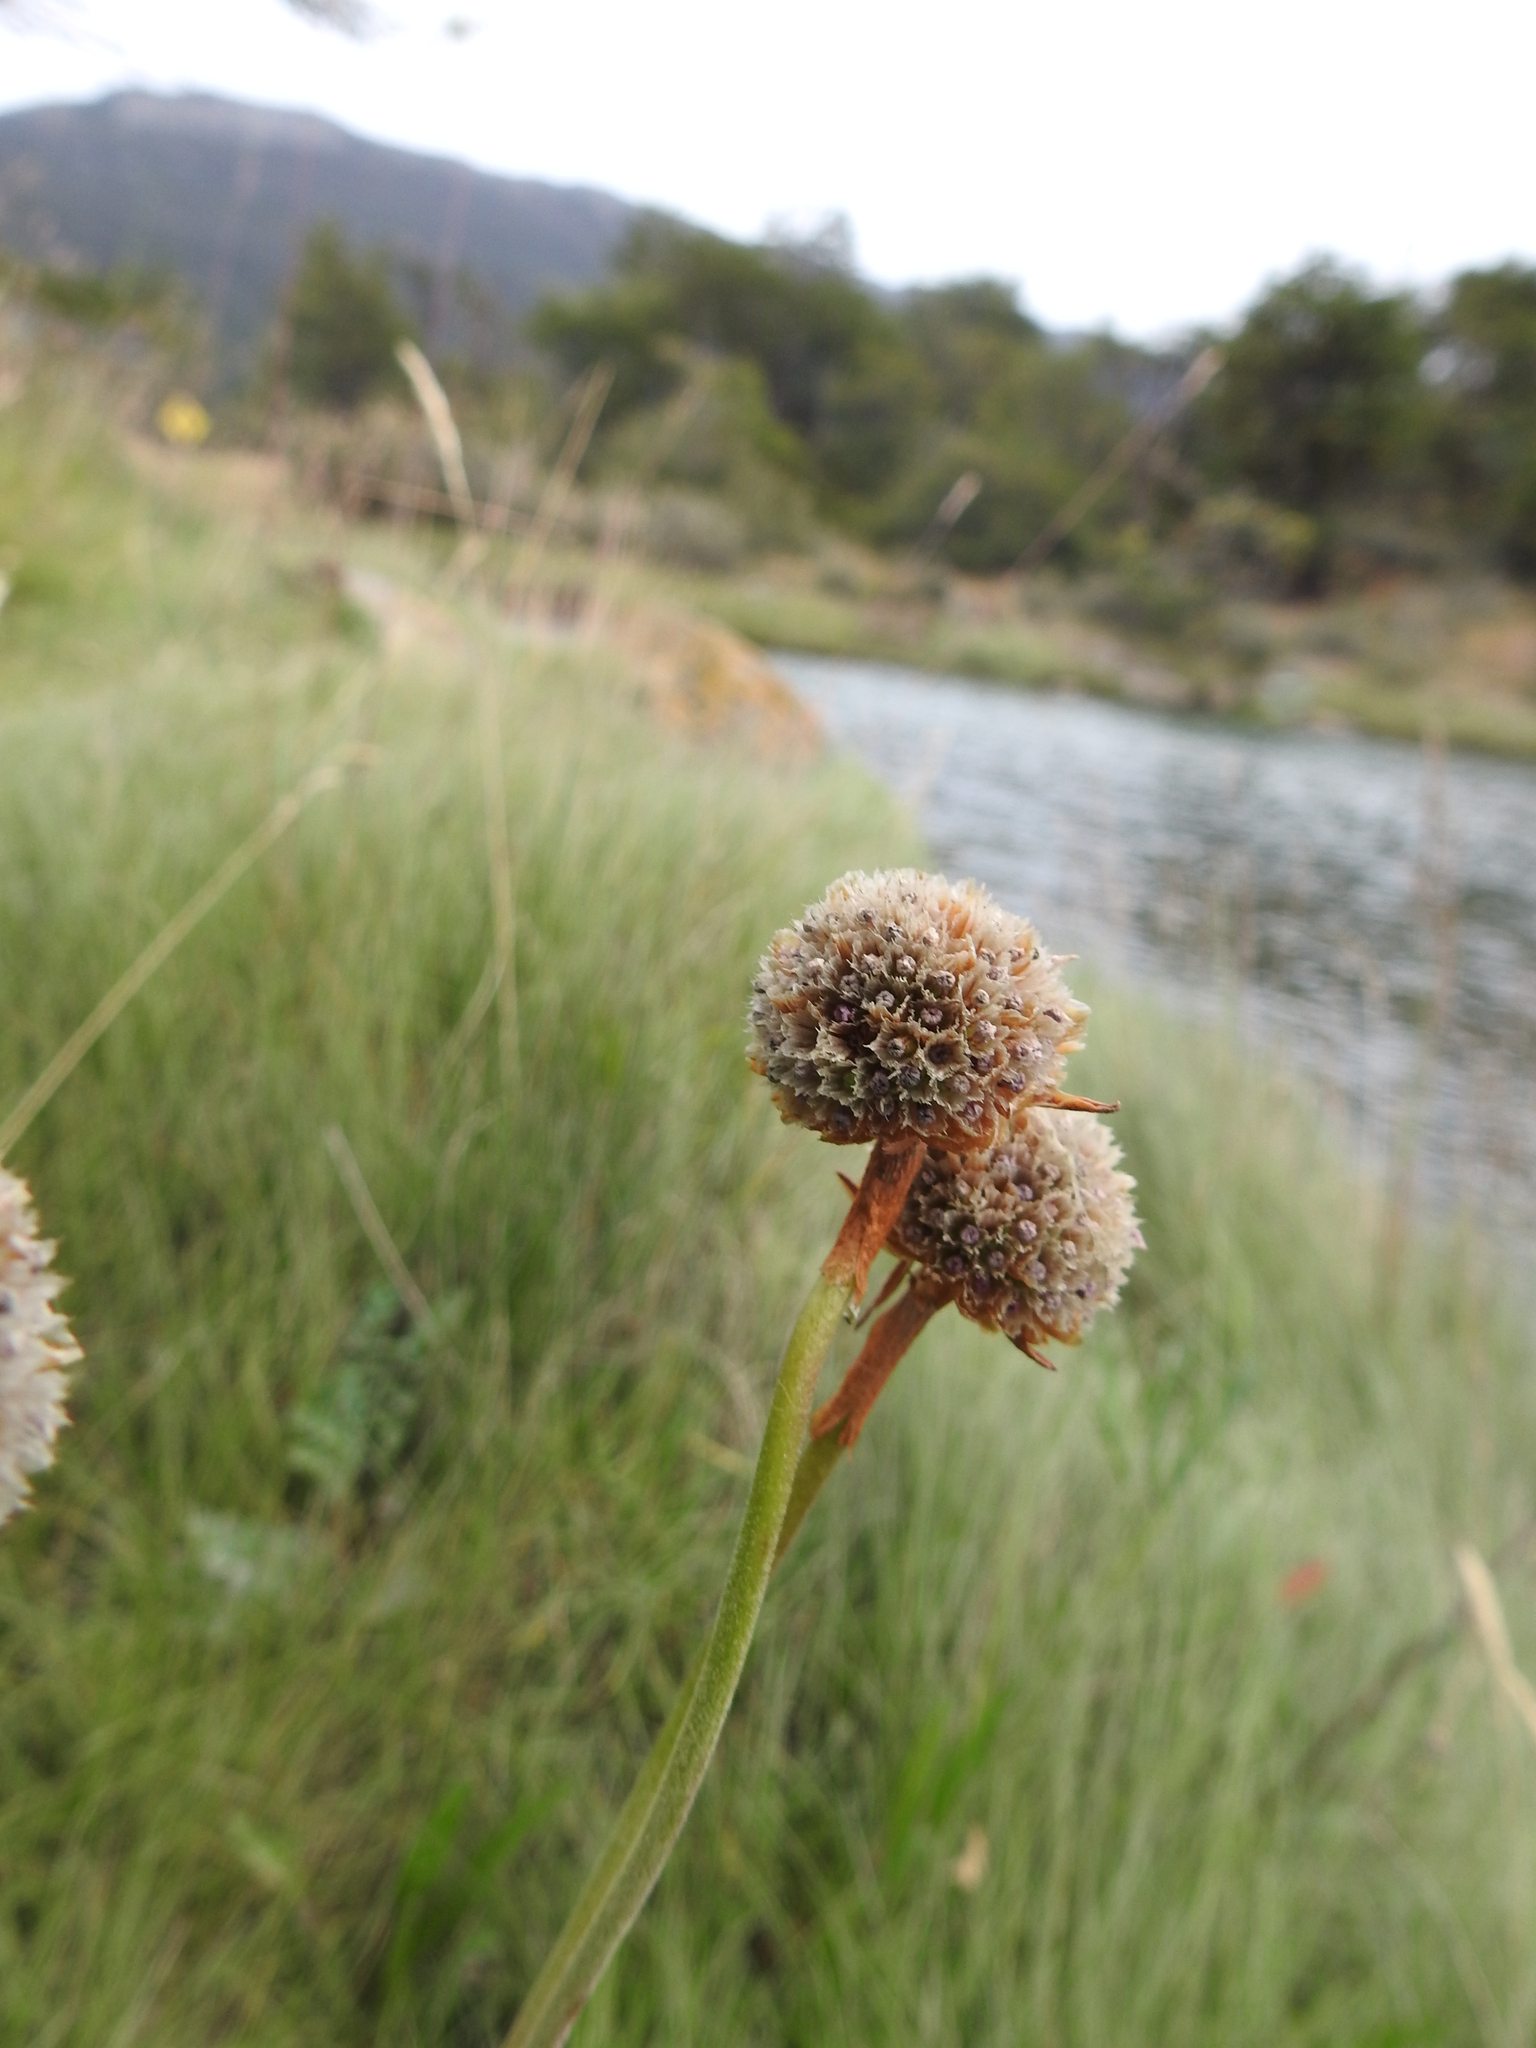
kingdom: Plantae
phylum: Tracheophyta
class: Magnoliopsida
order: Caryophyllales
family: Plumbaginaceae
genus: Armeria
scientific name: Armeria curvifolia
